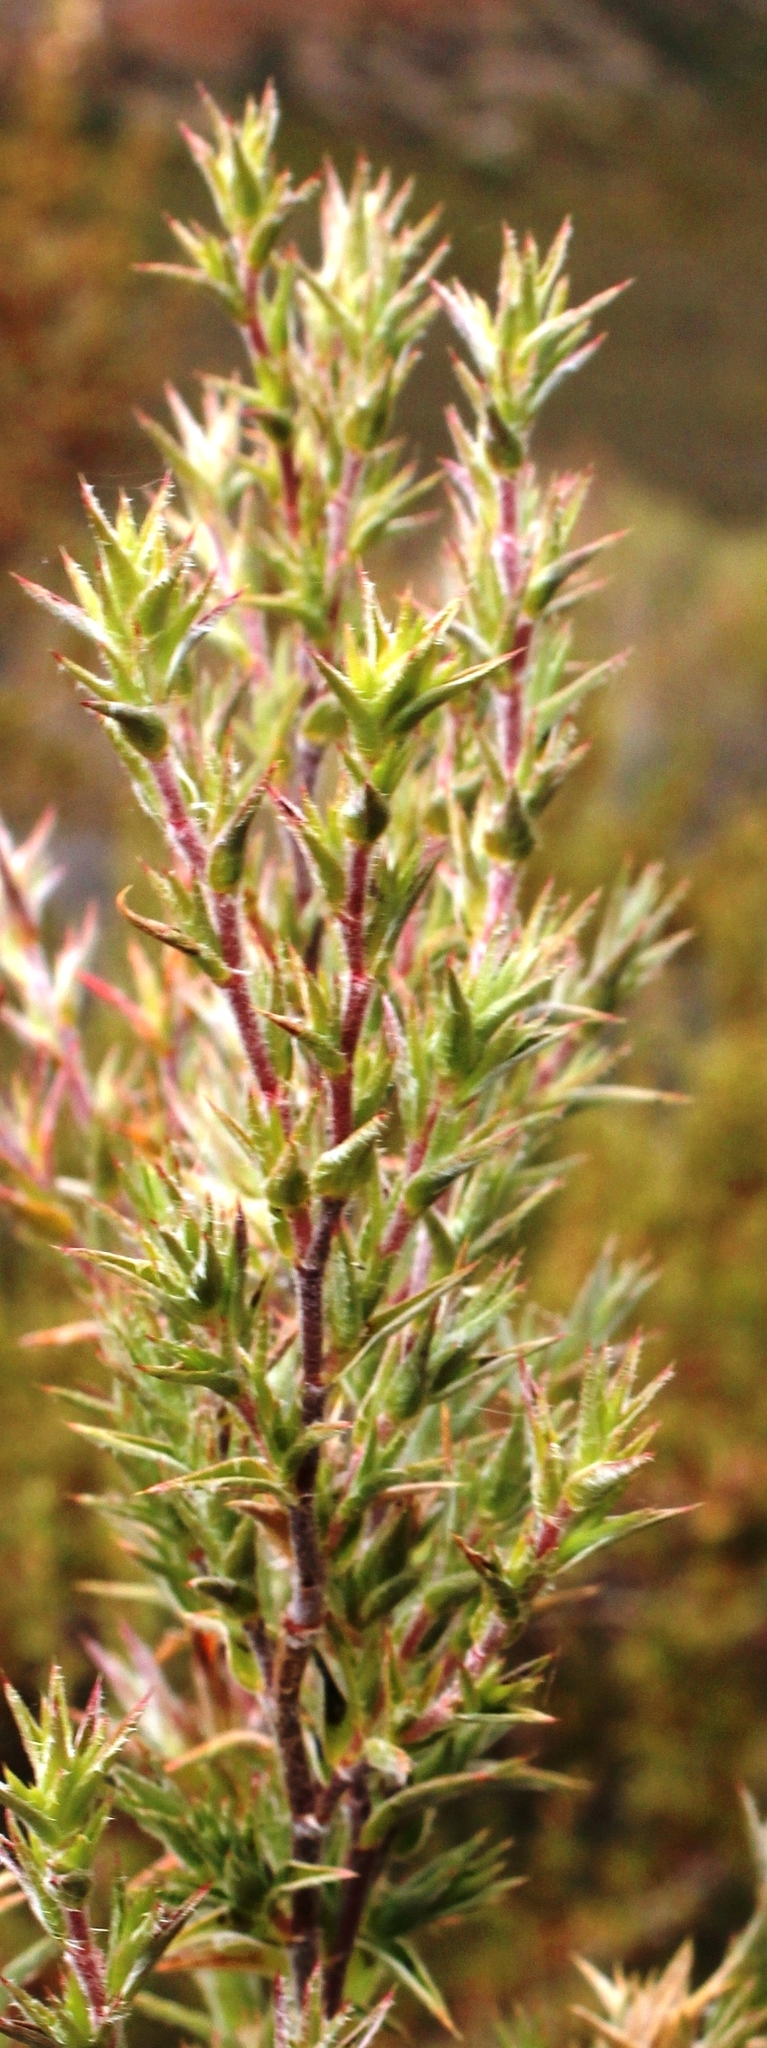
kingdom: Plantae
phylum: Tracheophyta
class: Magnoliopsida
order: Rosales
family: Rosaceae
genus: Cliffortia
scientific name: Cliffortia ruscifolia
